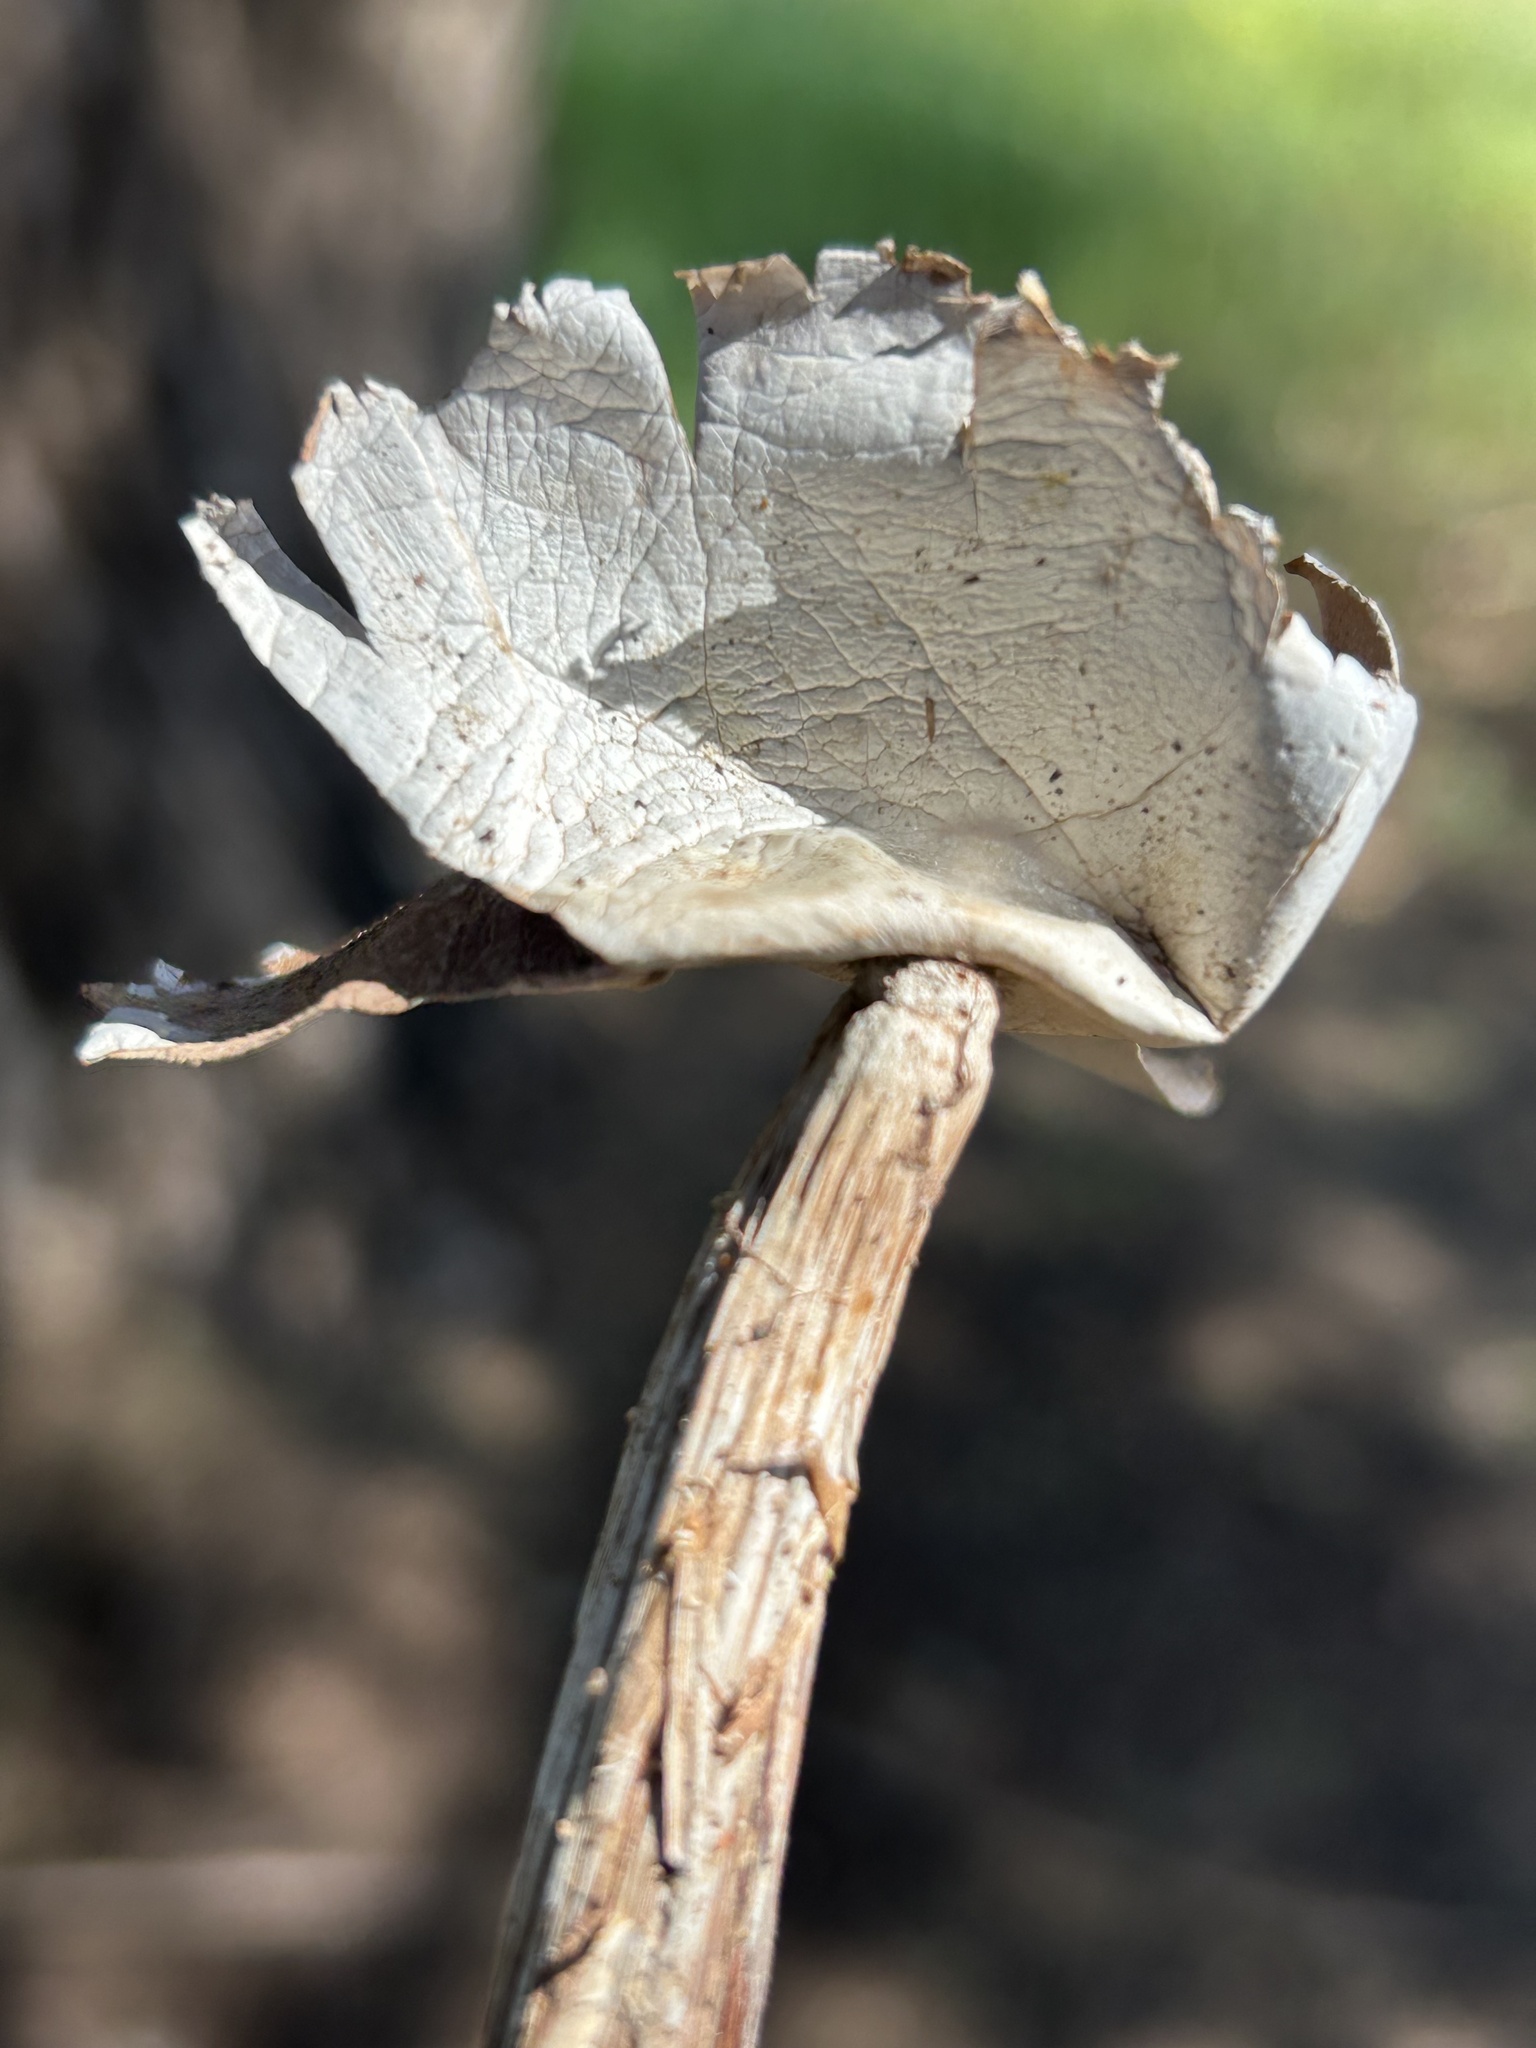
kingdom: Fungi
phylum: Basidiomycota
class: Agaricomycetes
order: Agaricales
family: Agaricaceae
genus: Battarrea
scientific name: Battarrea phalloides
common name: Sandy stiltball
